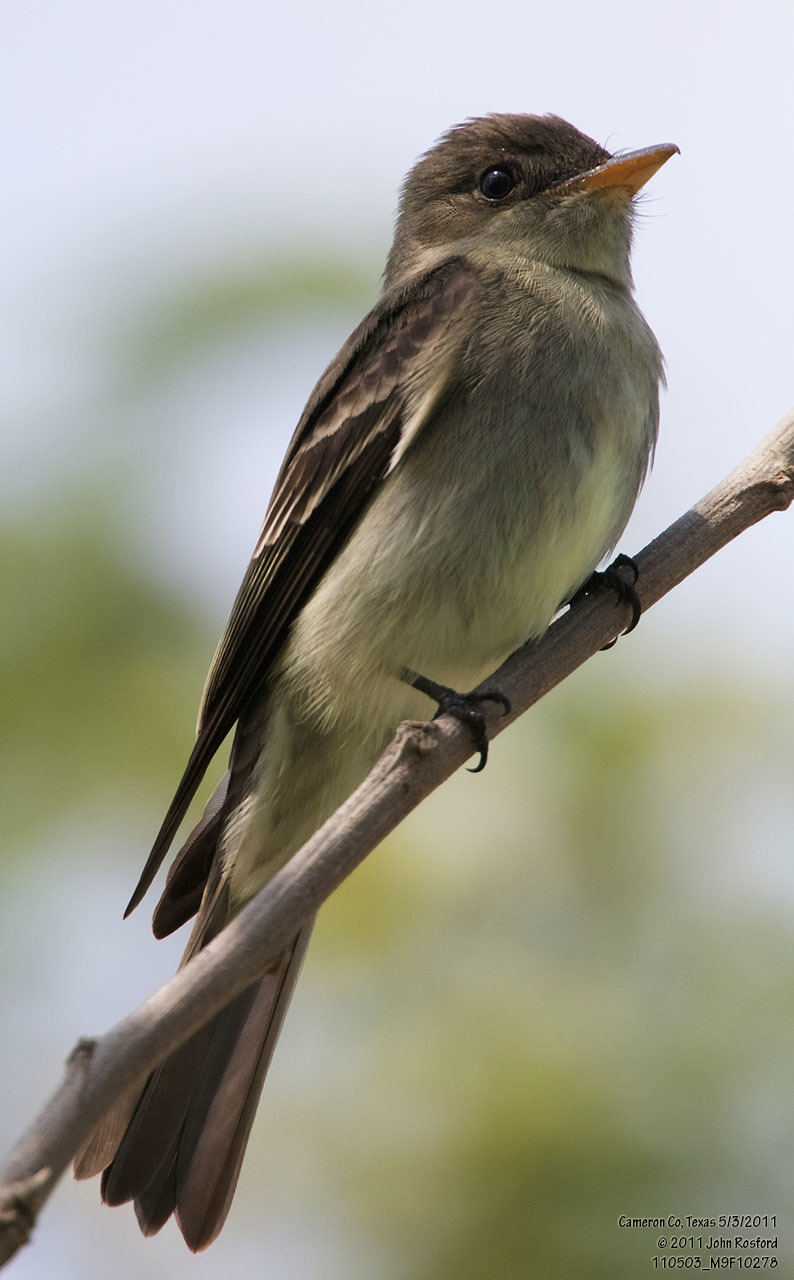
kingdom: Animalia
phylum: Chordata
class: Aves
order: Passeriformes
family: Tyrannidae
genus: Contopus
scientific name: Contopus virens
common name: Eastern wood-pewee
